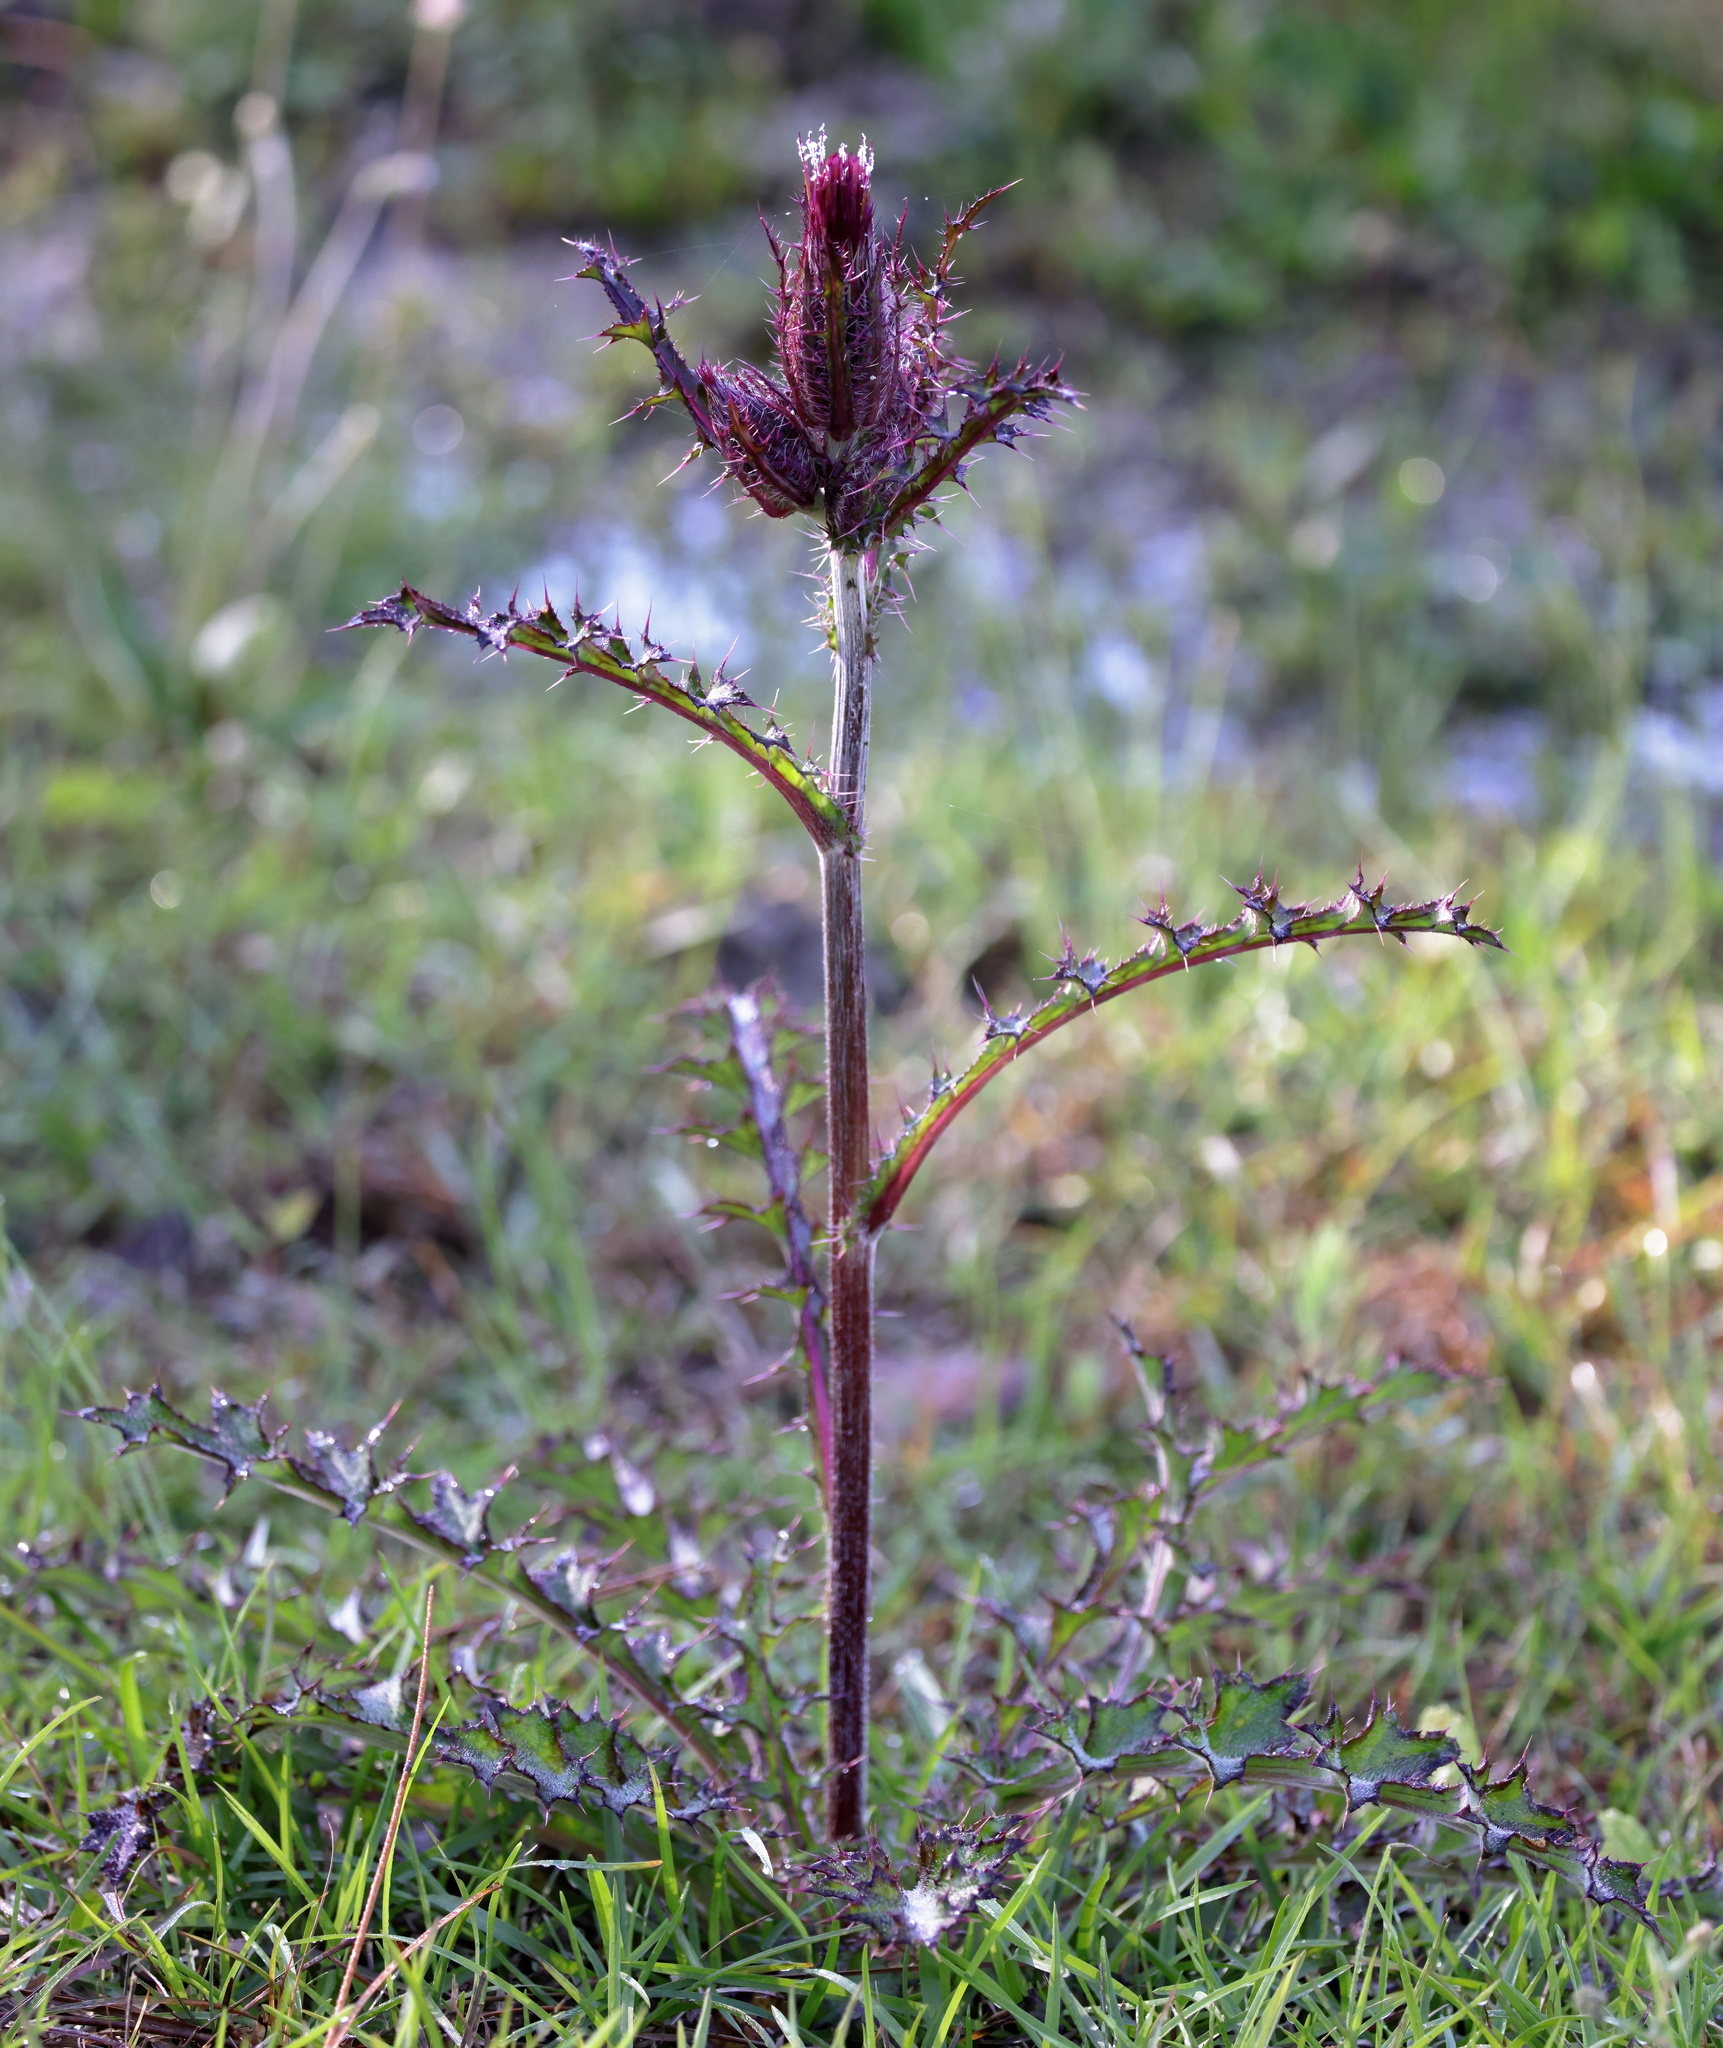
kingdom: Plantae
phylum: Tracheophyta
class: Magnoliopsida
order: Asterales
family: Asteraceae
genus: Cirsium
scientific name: Cirsium horridulum
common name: Bristly thistle
